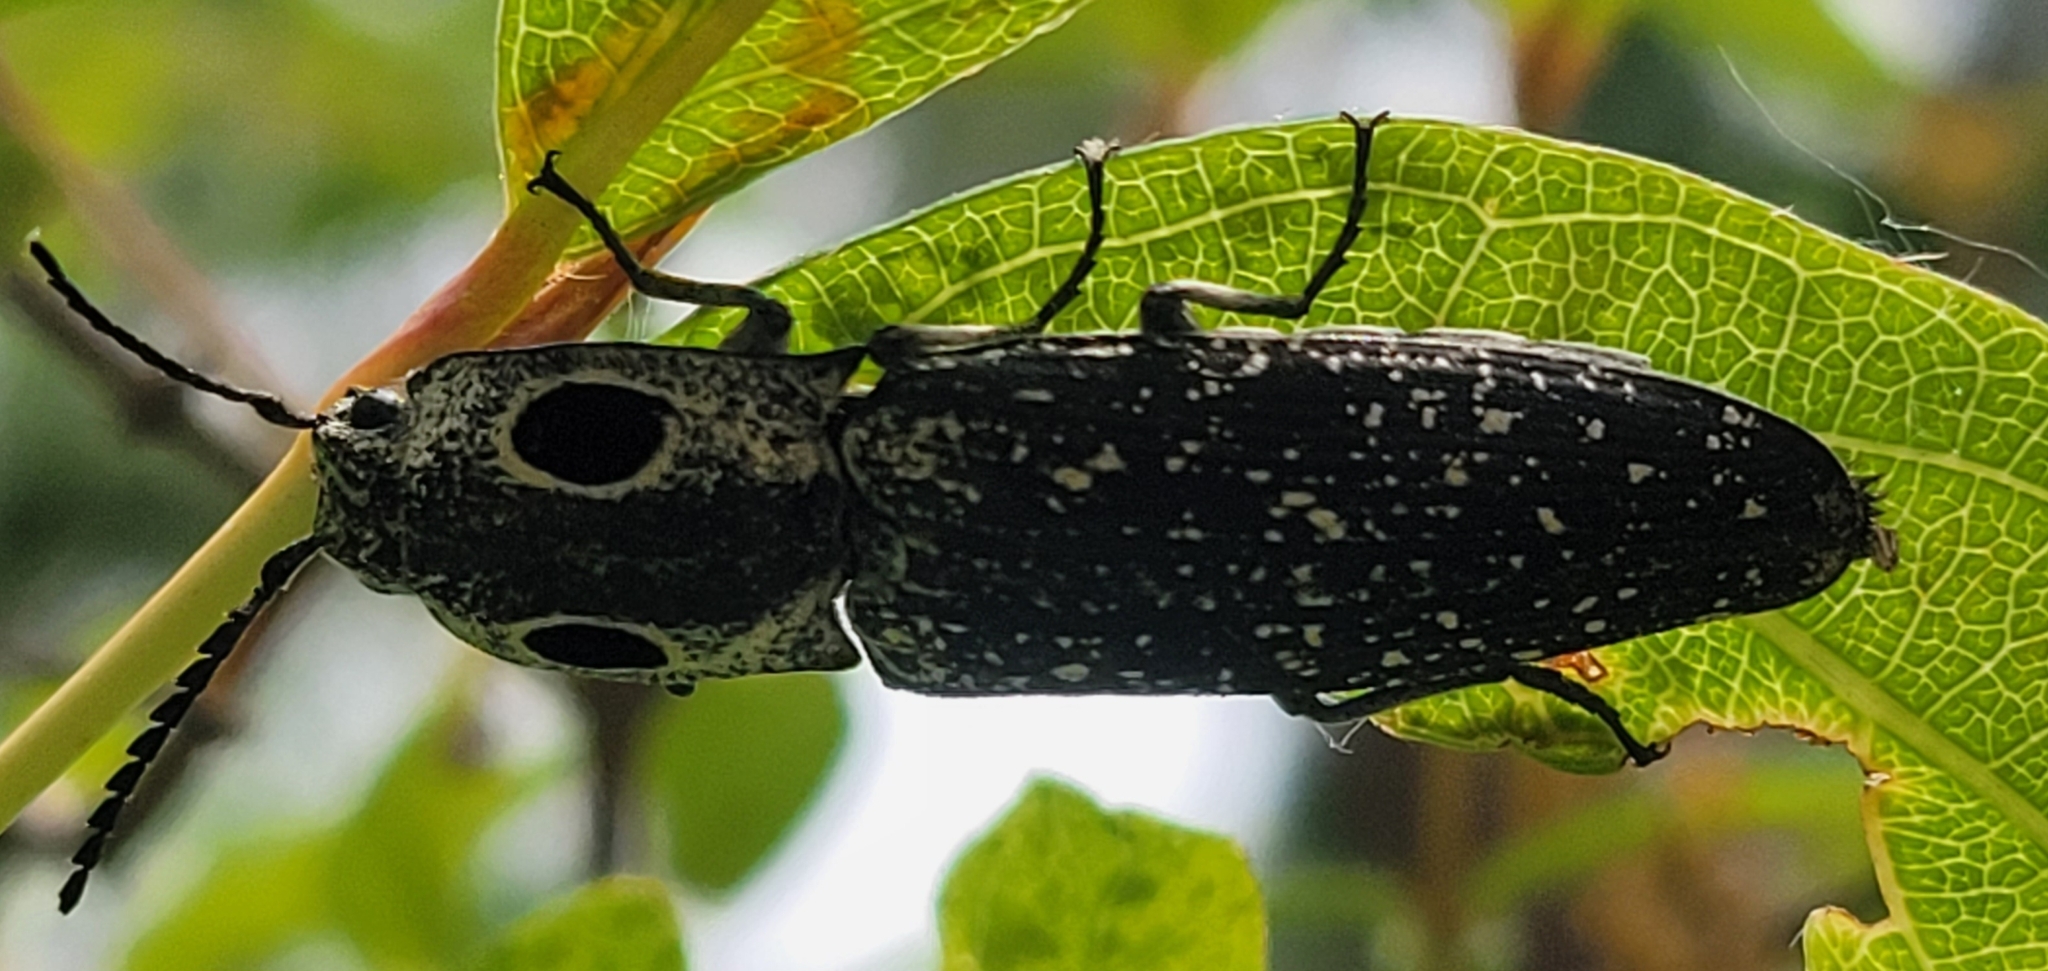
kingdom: Animalia
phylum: Arthropoda
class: Insecta
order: Coleoptera
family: Elateridae
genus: Alaus
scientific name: Alaus oculatus
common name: Eastern eyed click beetle
